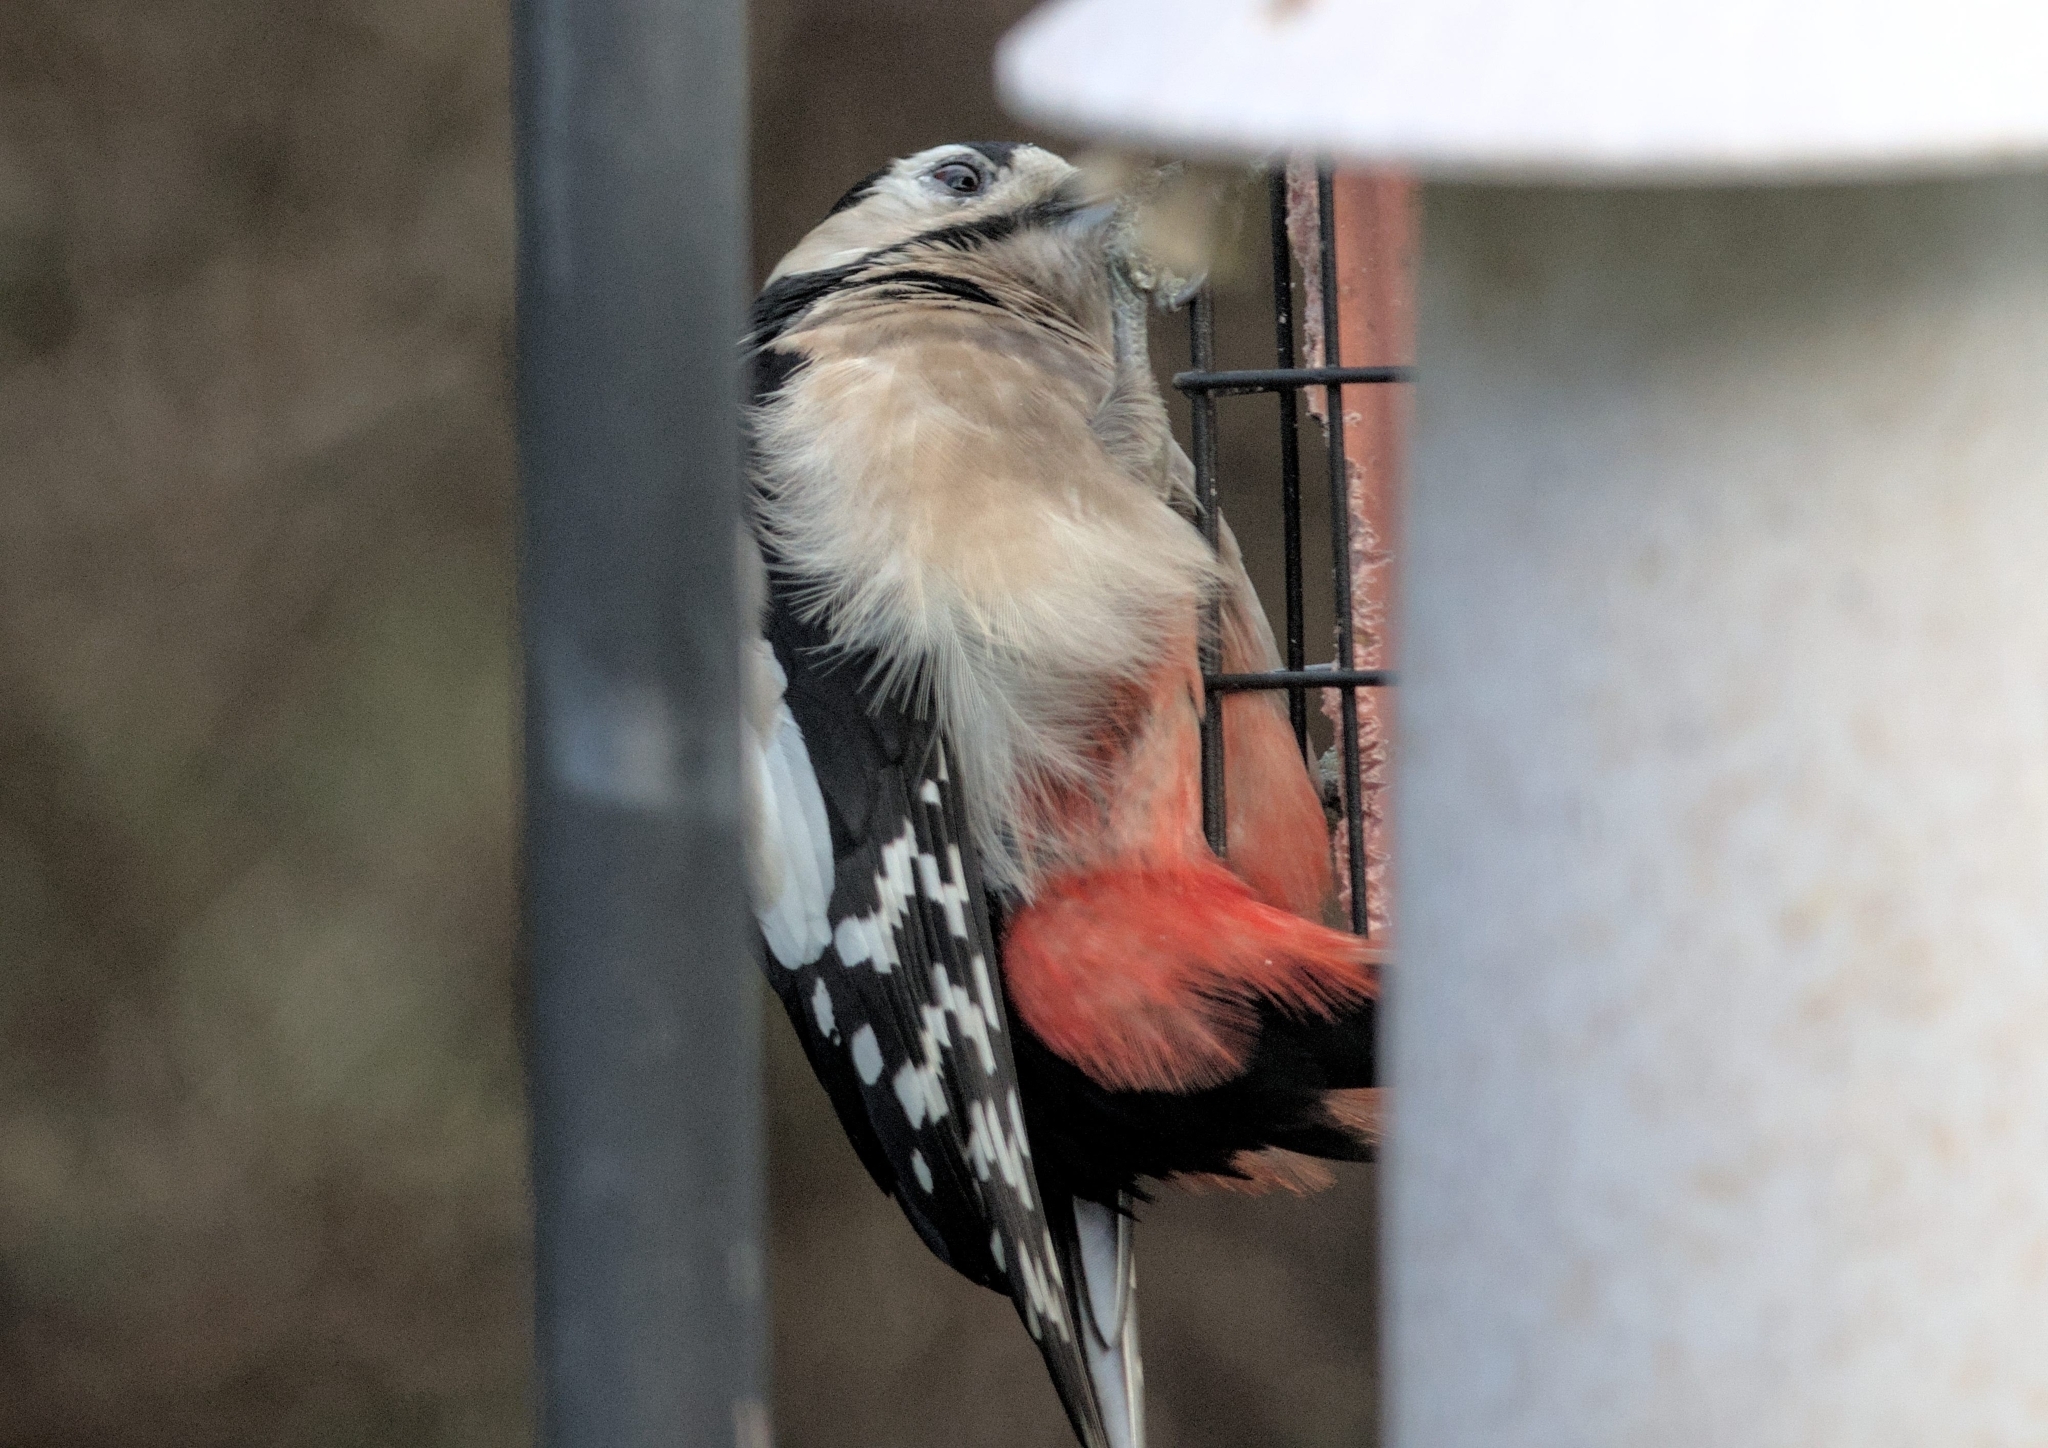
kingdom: Animalia
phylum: Chordata
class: Aves
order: Piciformes
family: Picidae
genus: Dendrocopos
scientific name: Dendrocopos major
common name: Great spotted woodpecker
